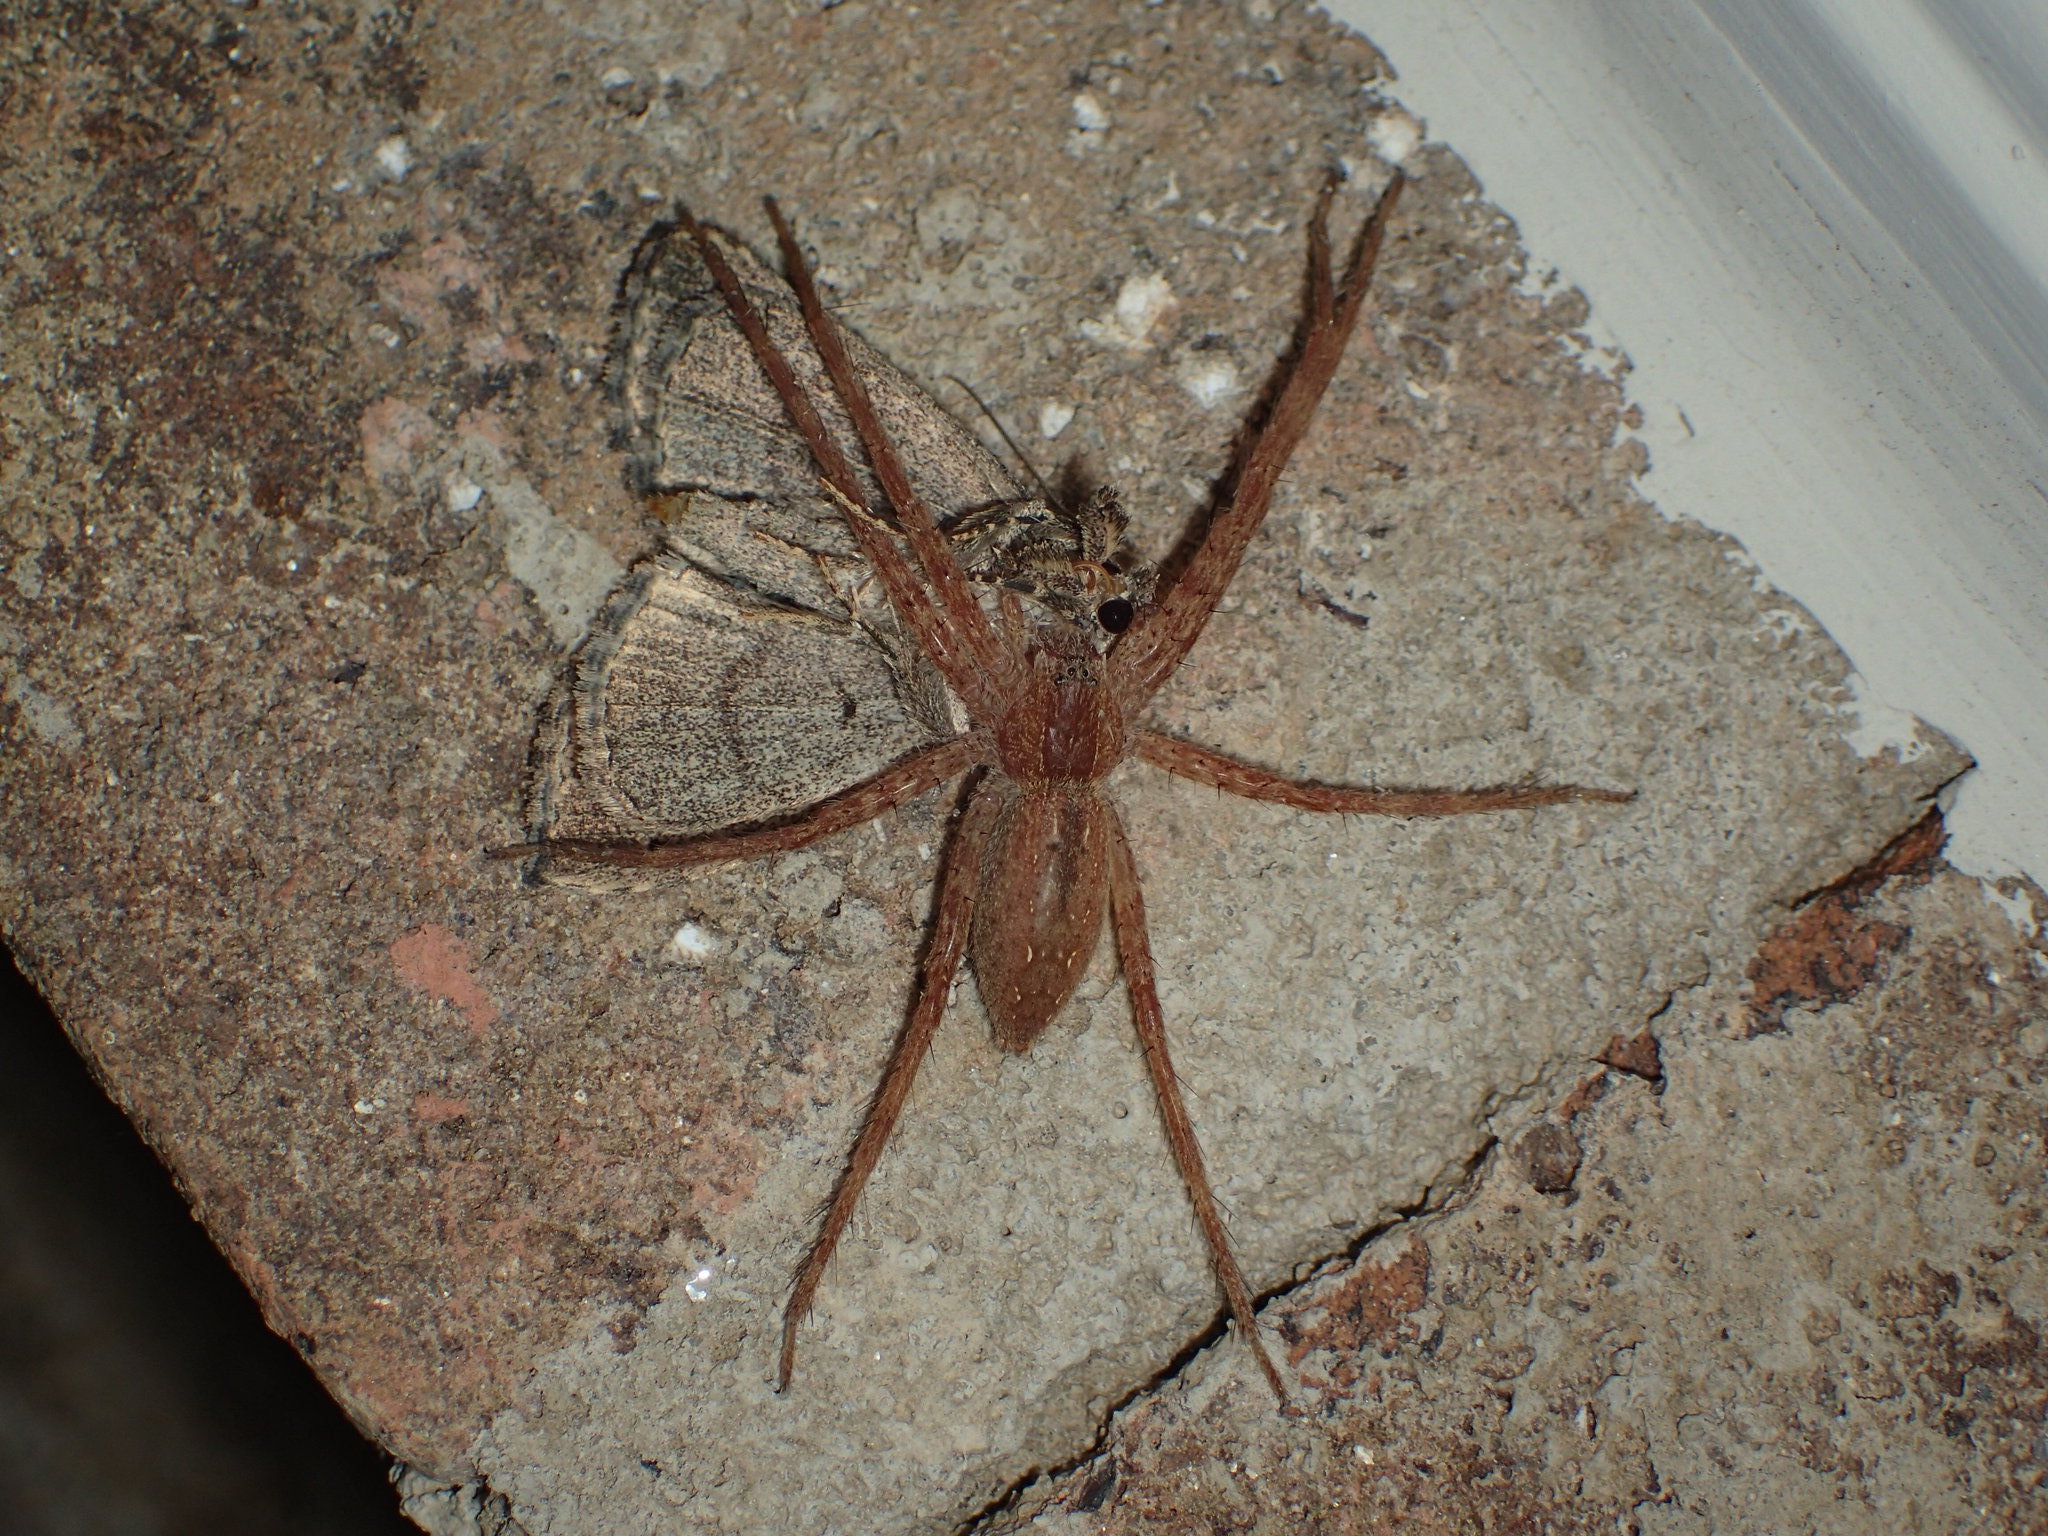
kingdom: Animalia
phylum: Arthropoda
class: Arachnida
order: Araneae
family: Pisauridae
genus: Pisaurina
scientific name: Pisaurina mira
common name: American nursery web spider
